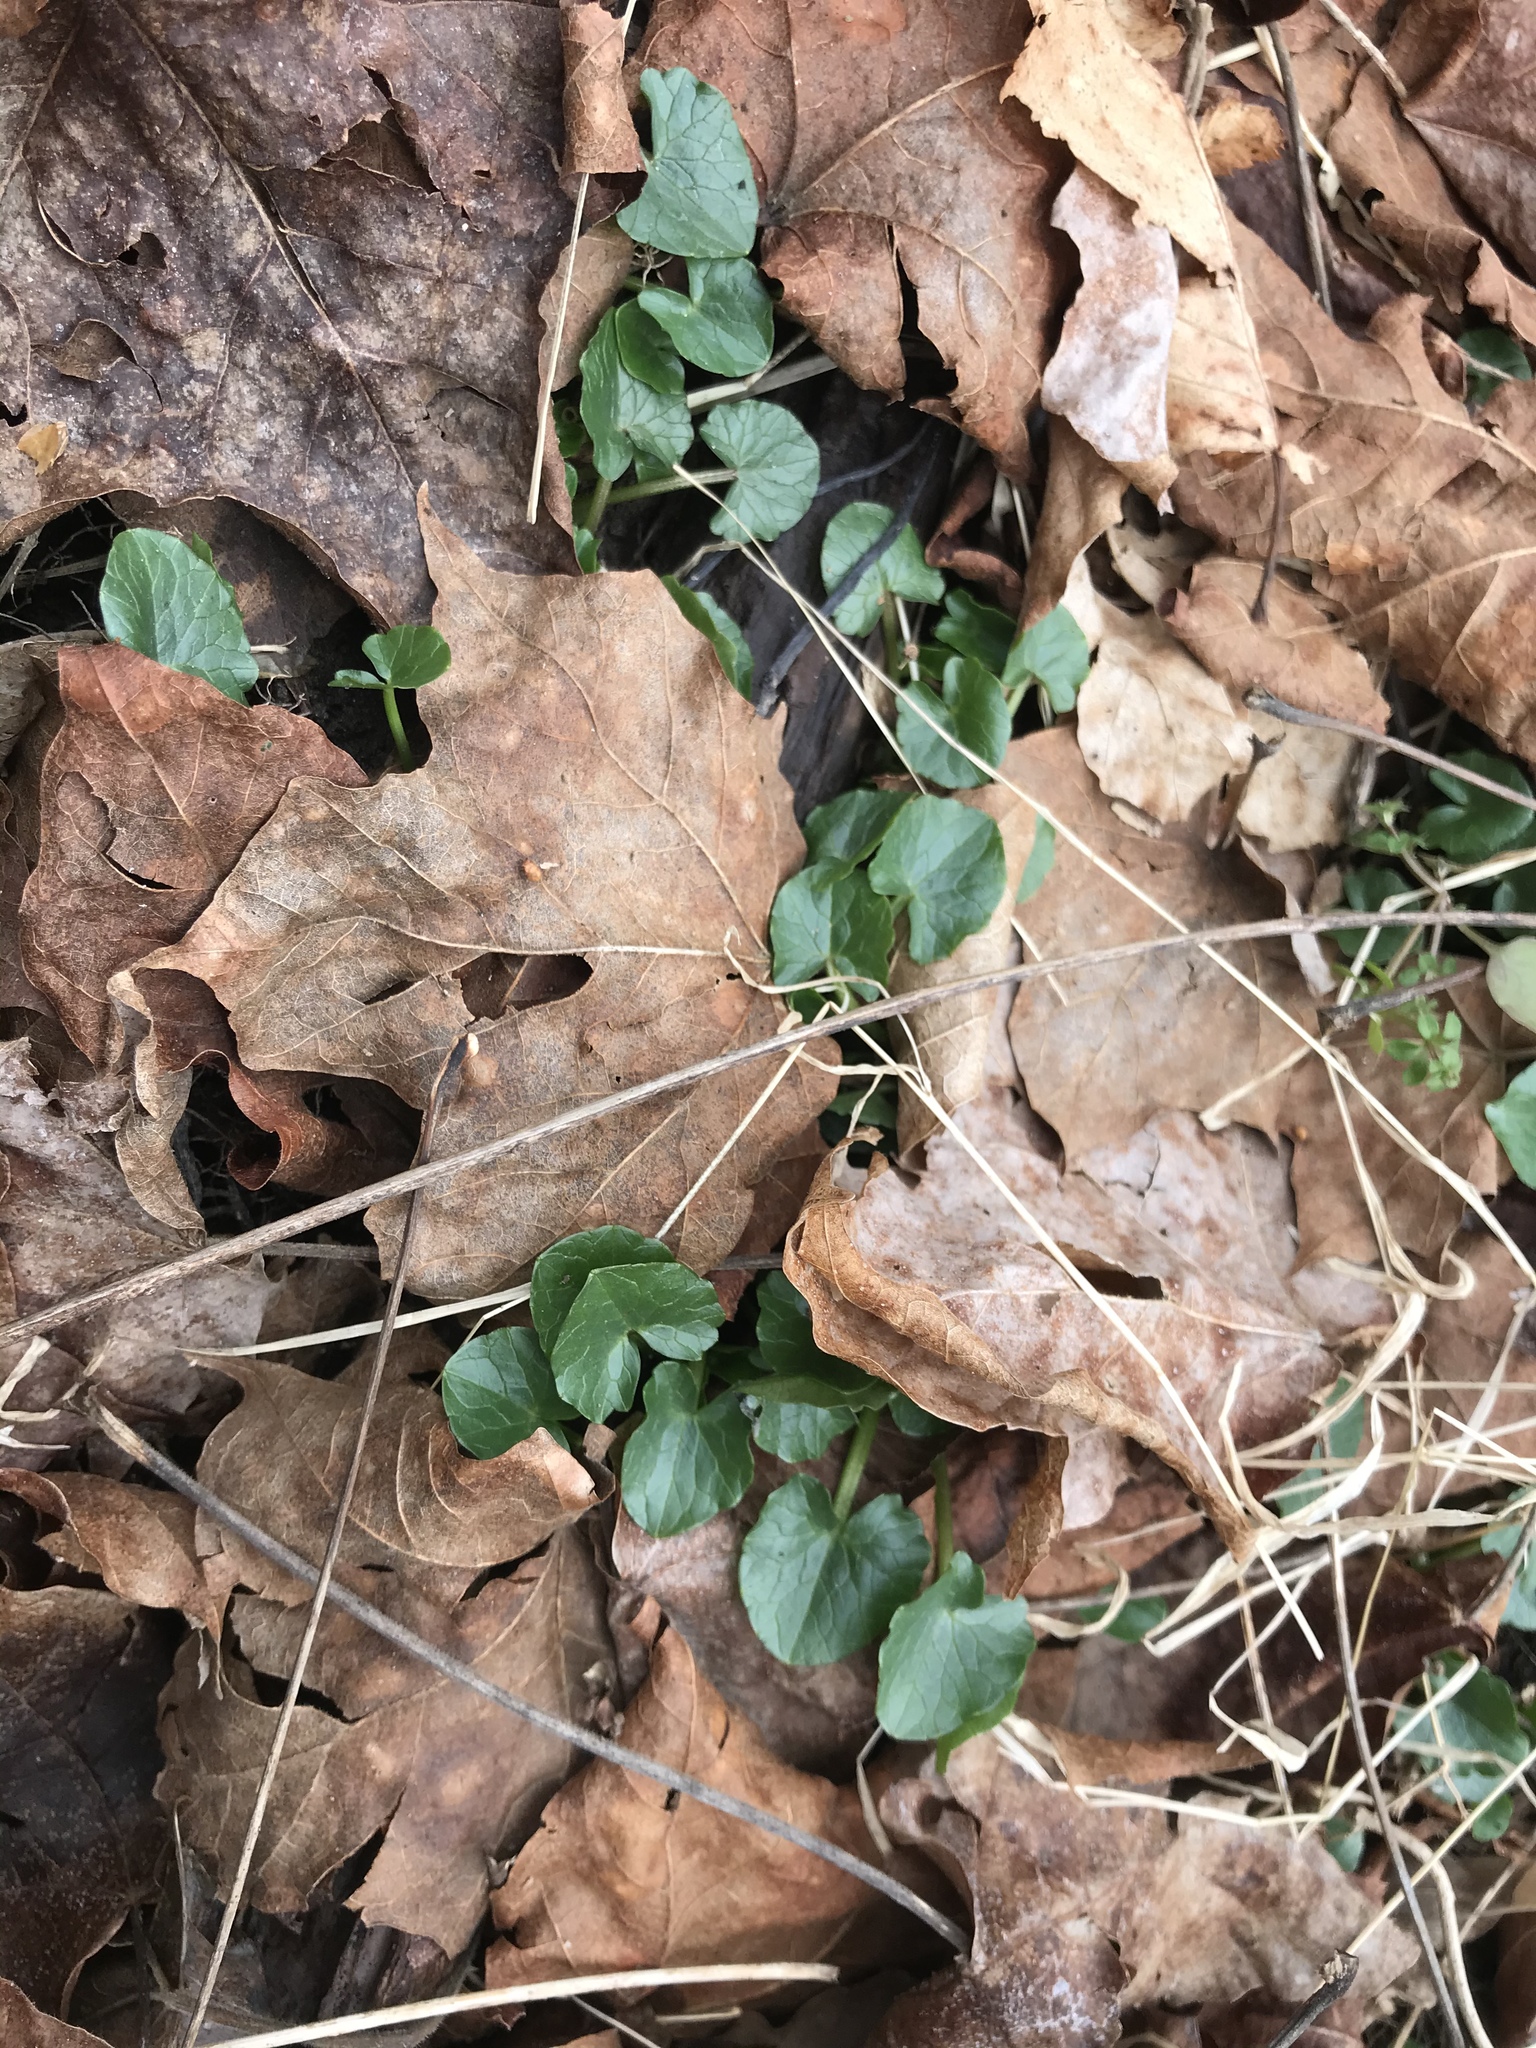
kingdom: Plantae
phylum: Tracheophyta
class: Magnoliopsida
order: Ranunculales
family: Ranunculaceae
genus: Ficaria
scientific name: Ficaria verna
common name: Lesser celandine
